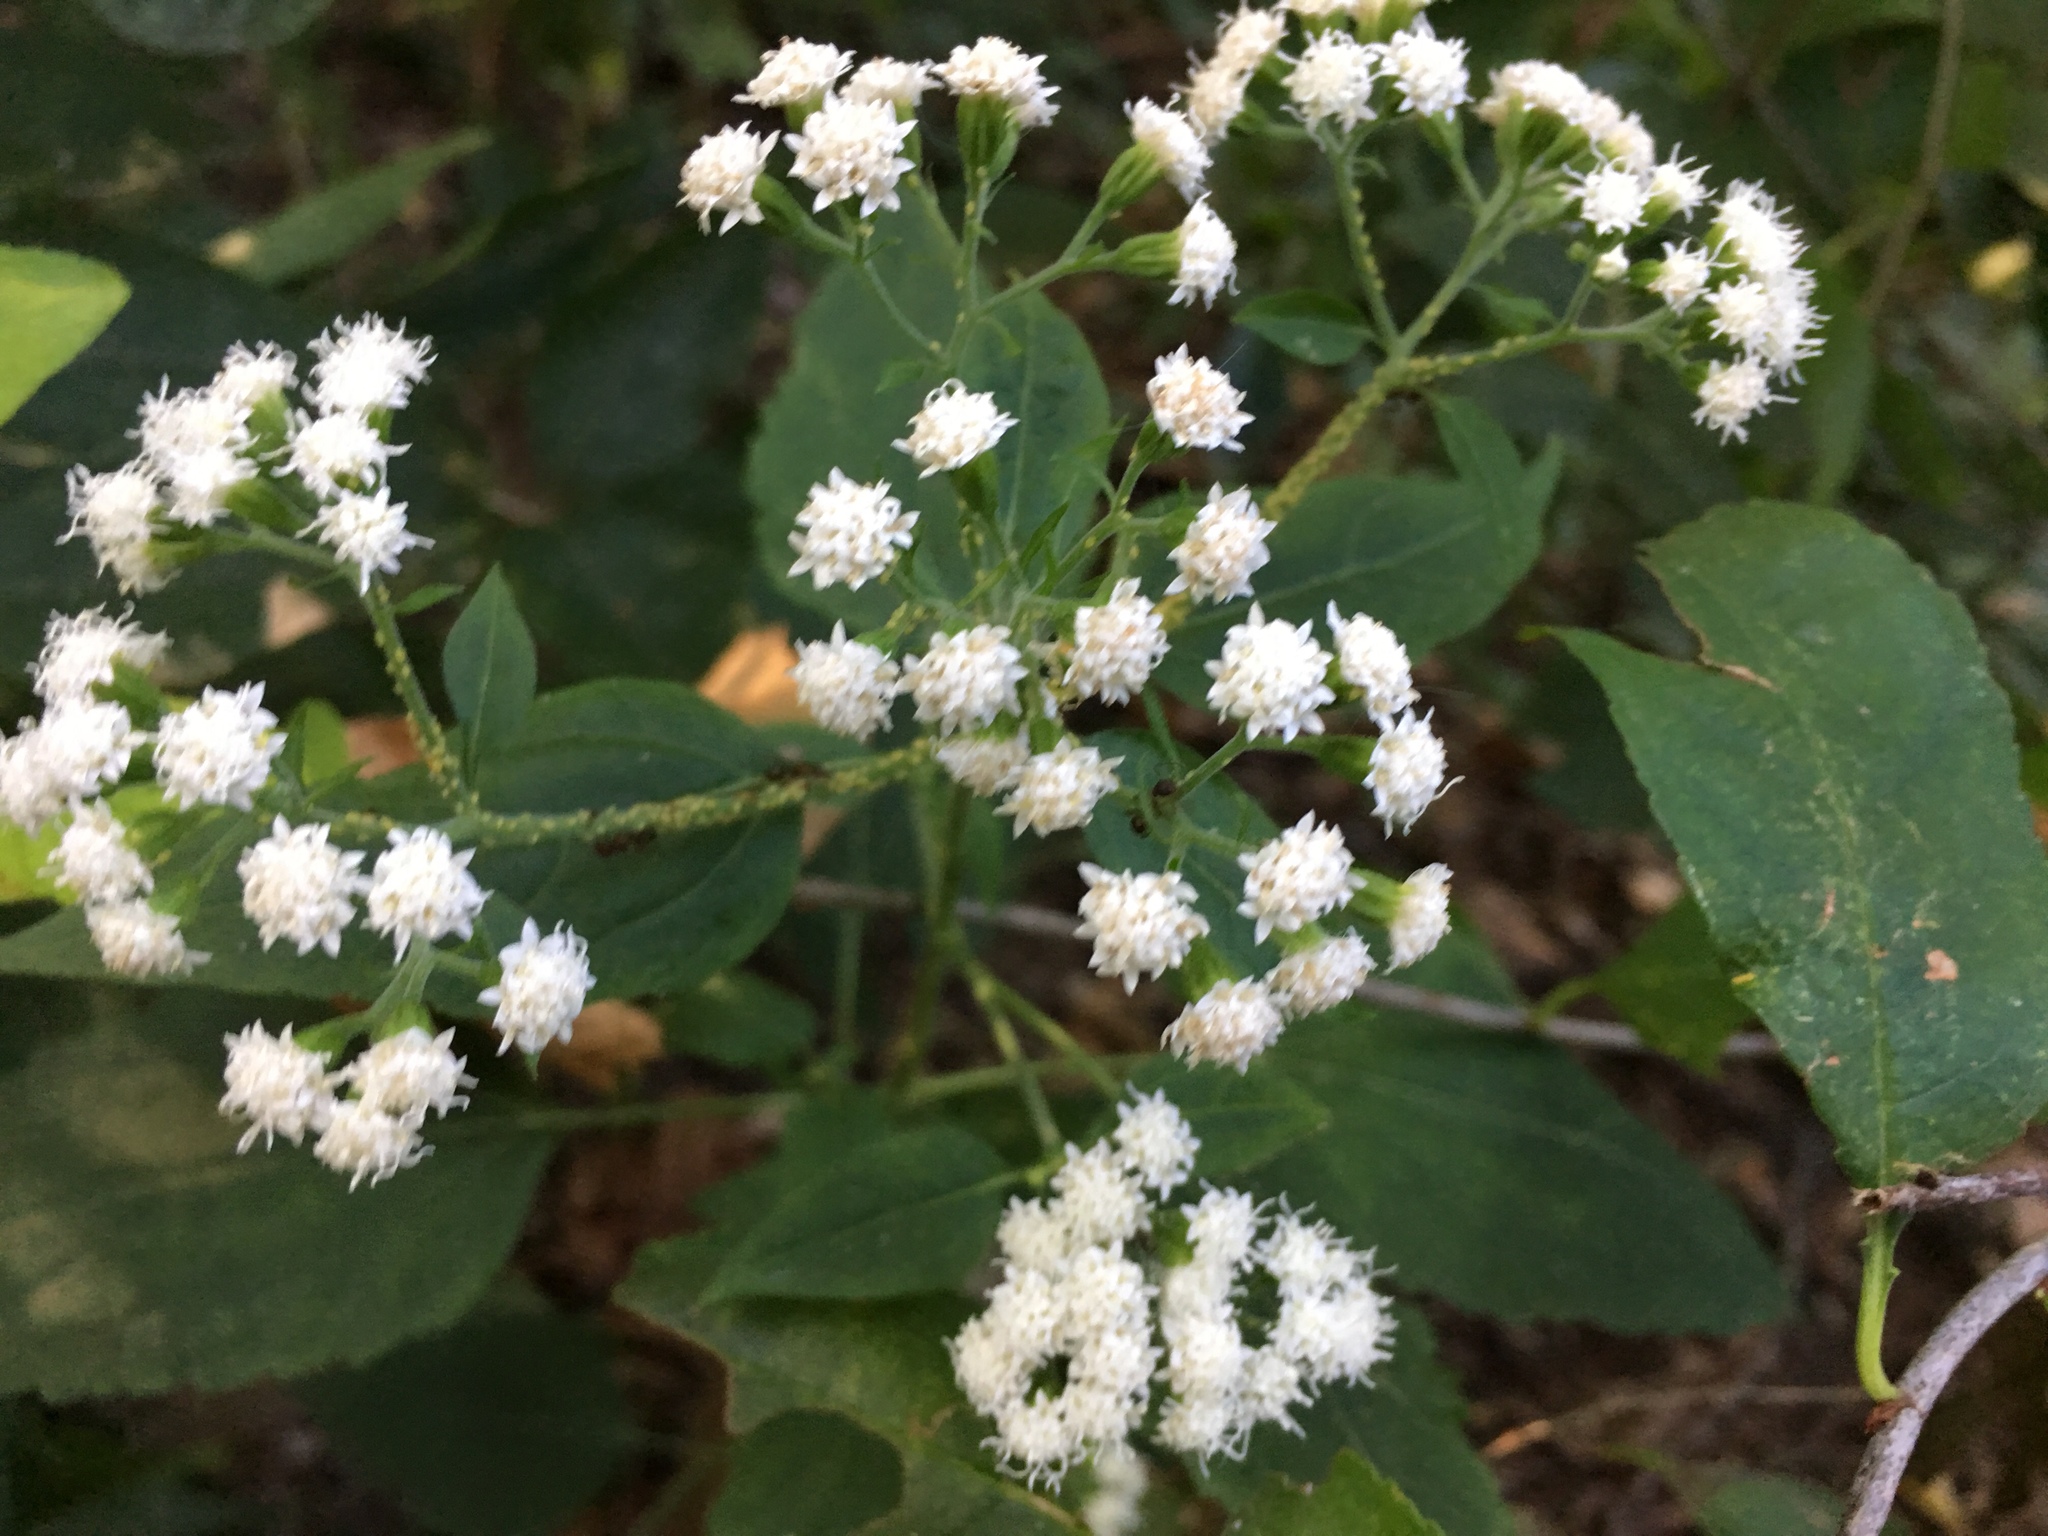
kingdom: Plantae
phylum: Tracheophyta
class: Magnoliopsida
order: Asterales
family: Asteraceae
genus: Ageratina
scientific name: Ageratina altissima
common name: White snakeroot
